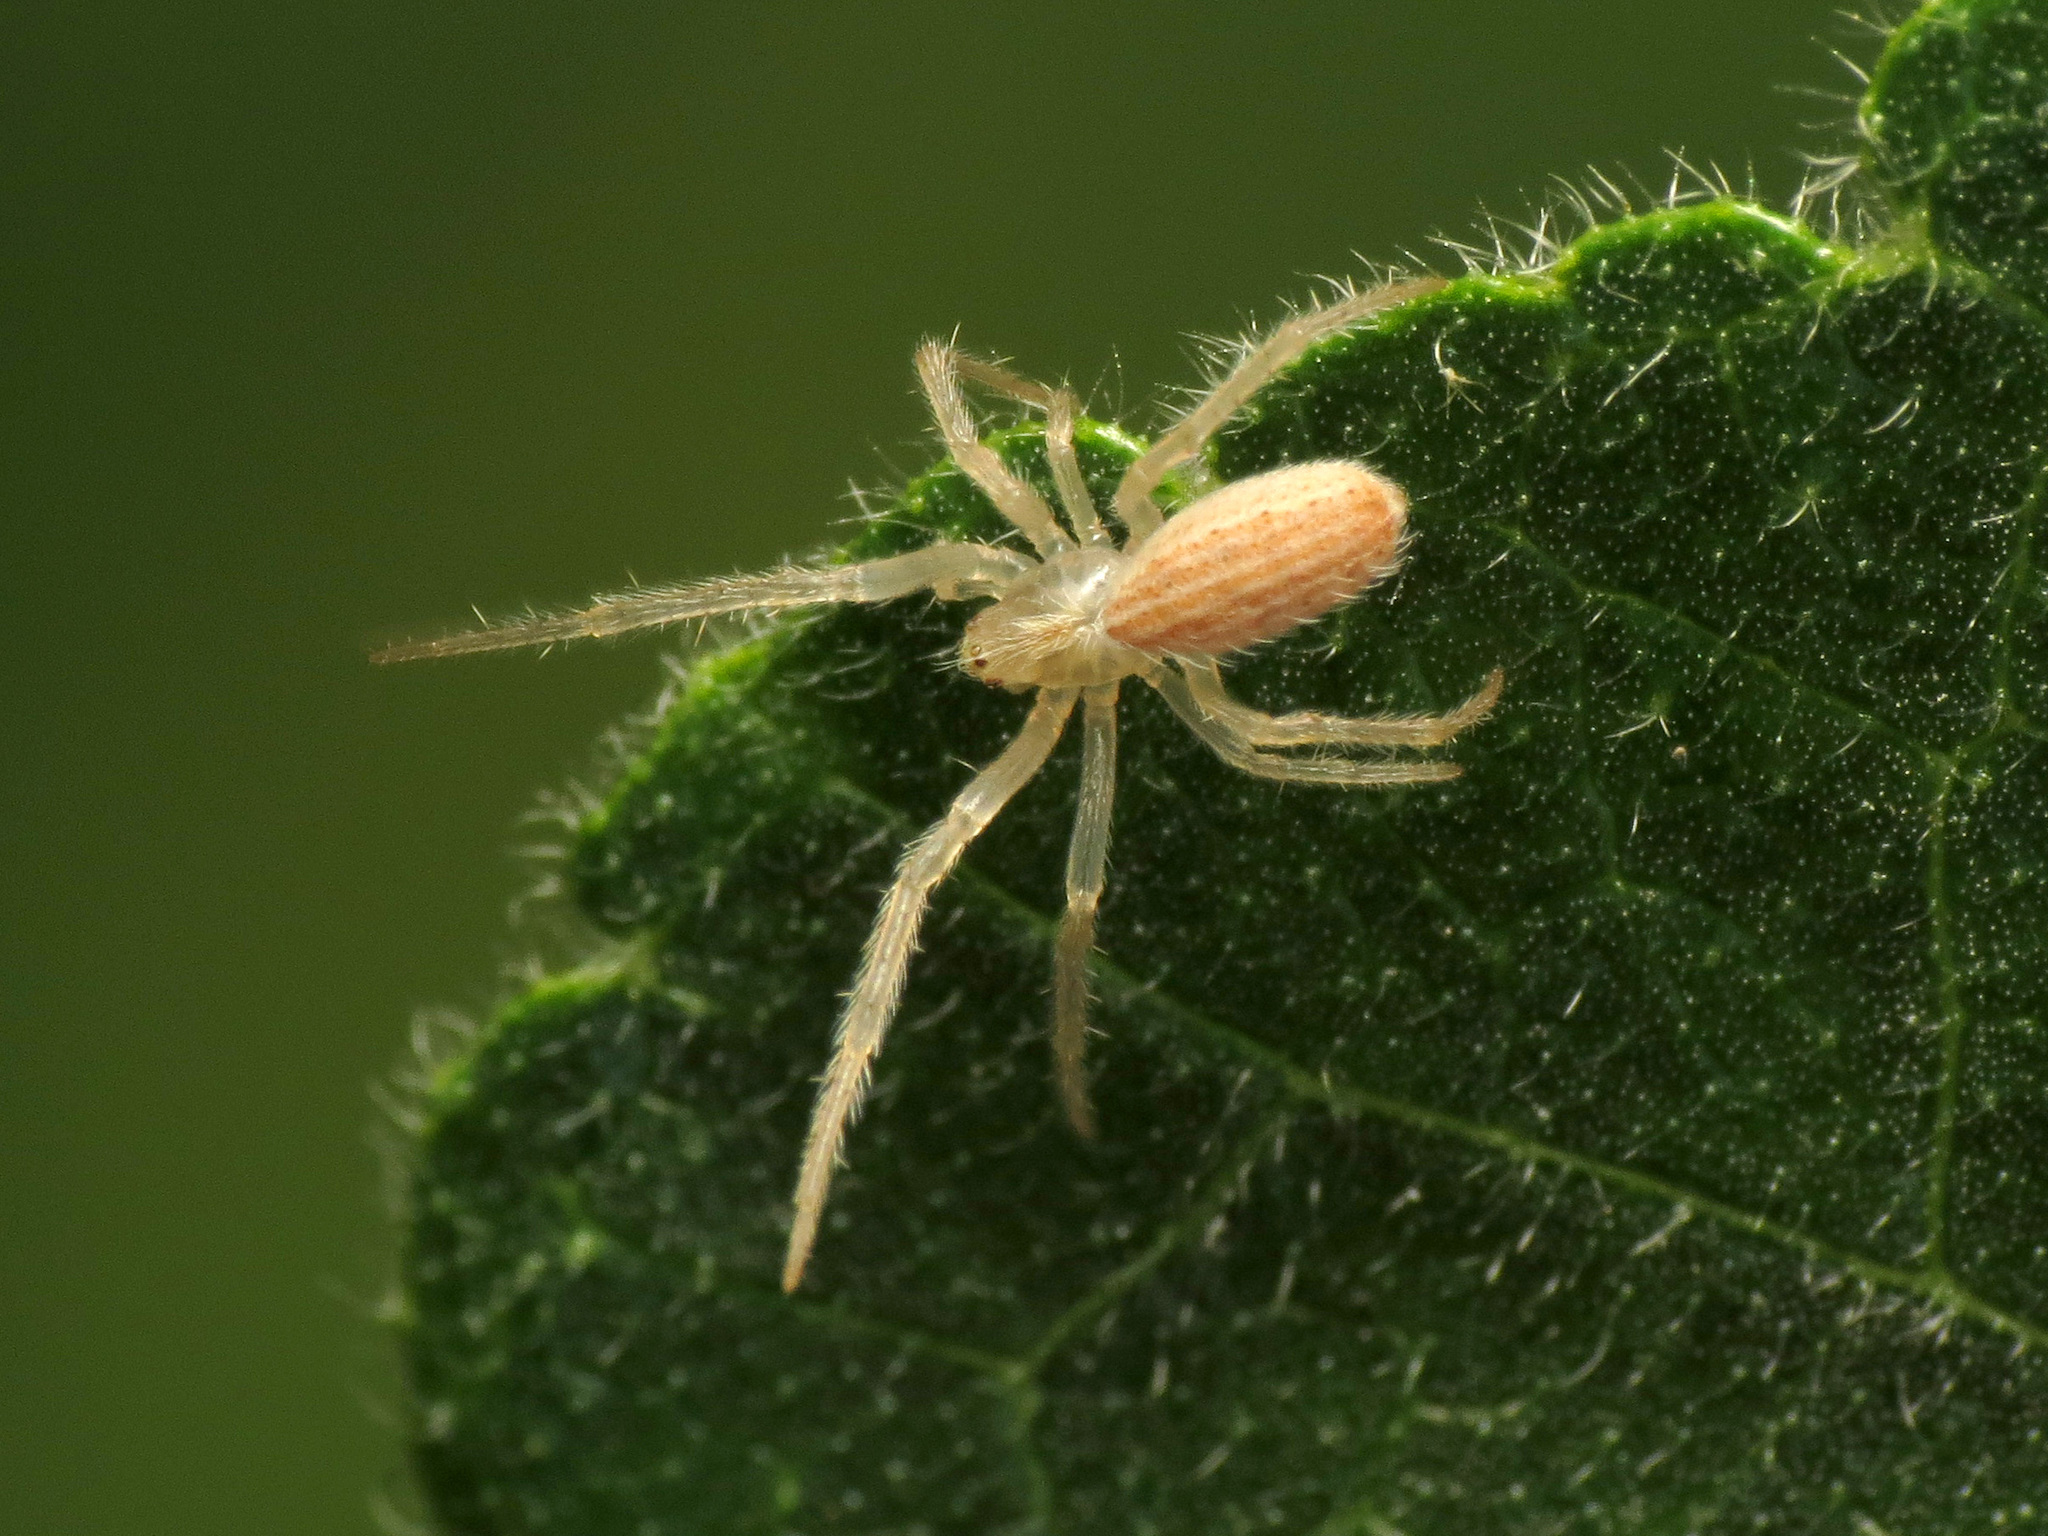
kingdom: Animalia
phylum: Arthropoda
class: Arachnida
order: Araneae
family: Araneidae
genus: Larinia
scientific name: Larinia lineata
